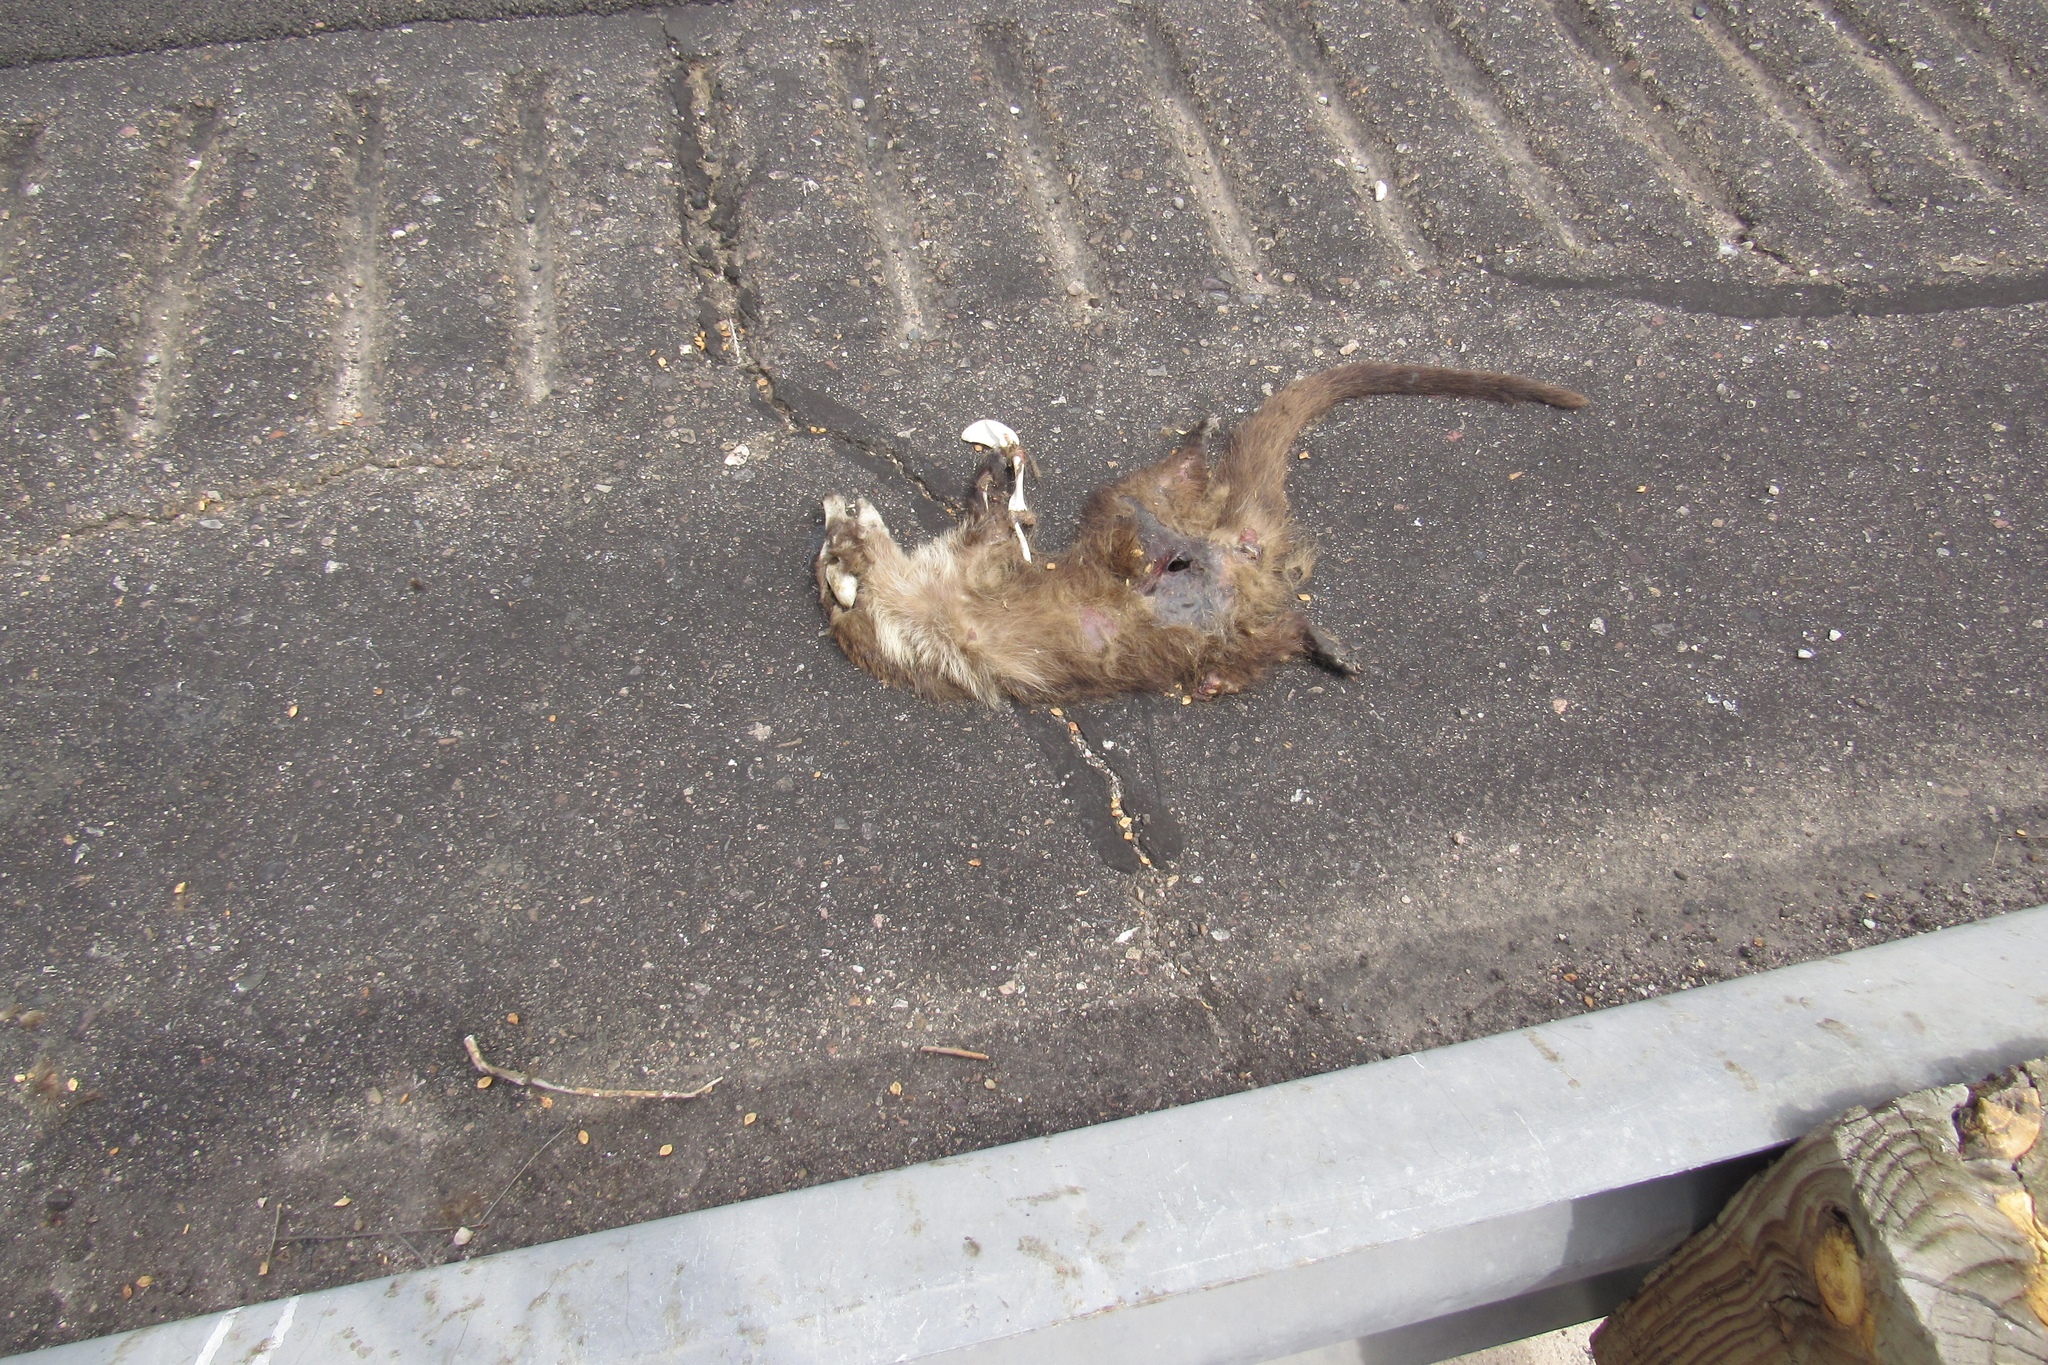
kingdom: Animalia
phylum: Chordata
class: Mammalia
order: Carnivora
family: Procyonidae
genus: Nasua
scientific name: Nasua narica
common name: White-nosed coati
